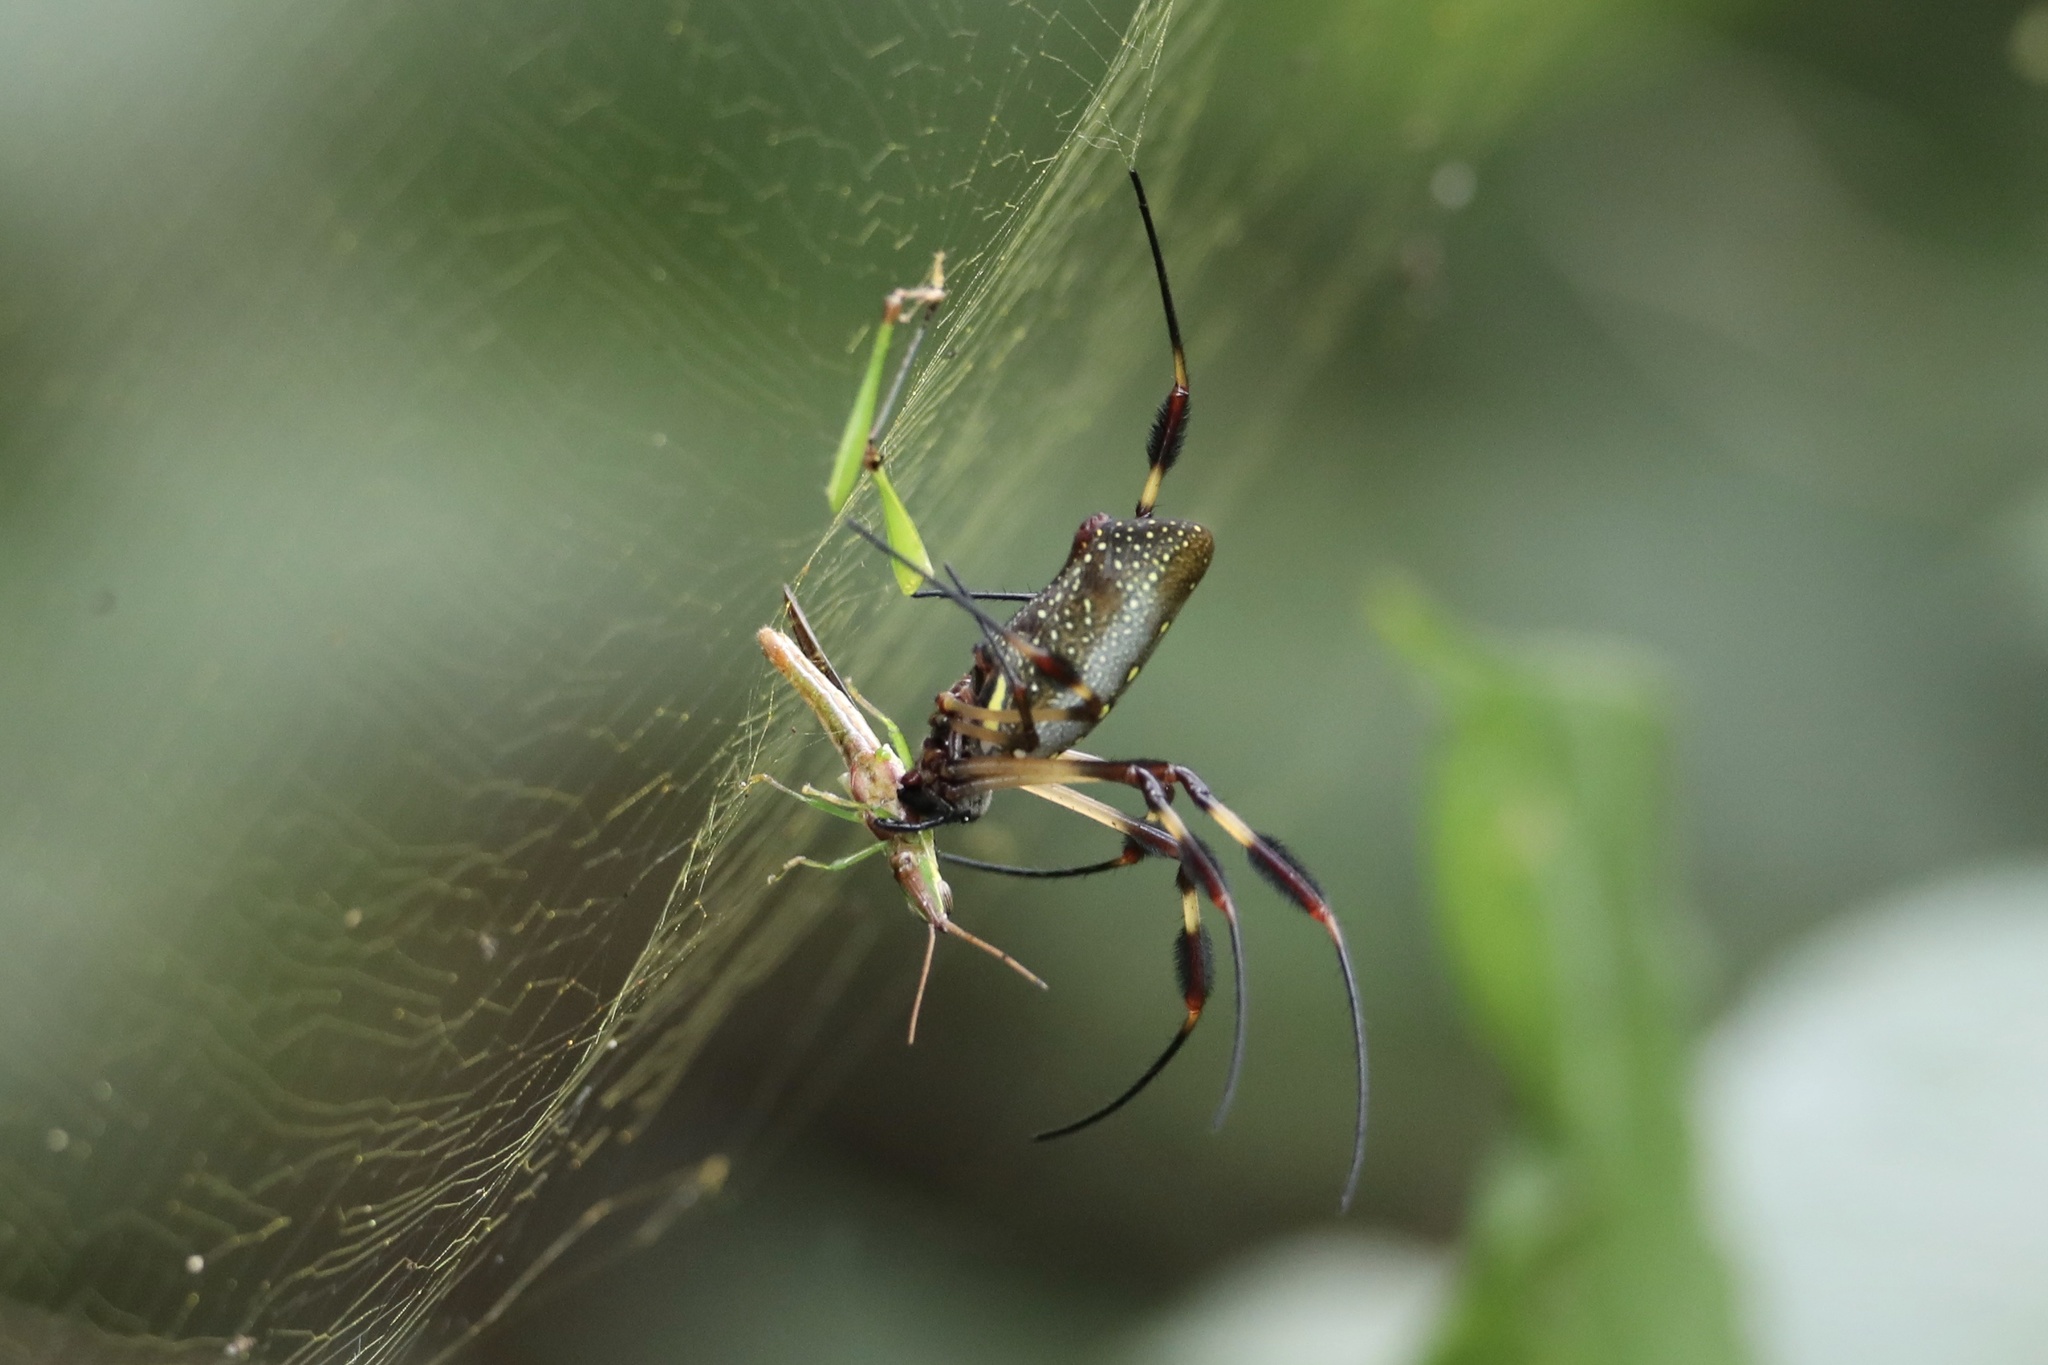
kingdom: Animalia
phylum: Arthropoda
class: Arachnida
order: Araneae
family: Araneidae
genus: Trichonephila
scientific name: Trichonephila clavipes
